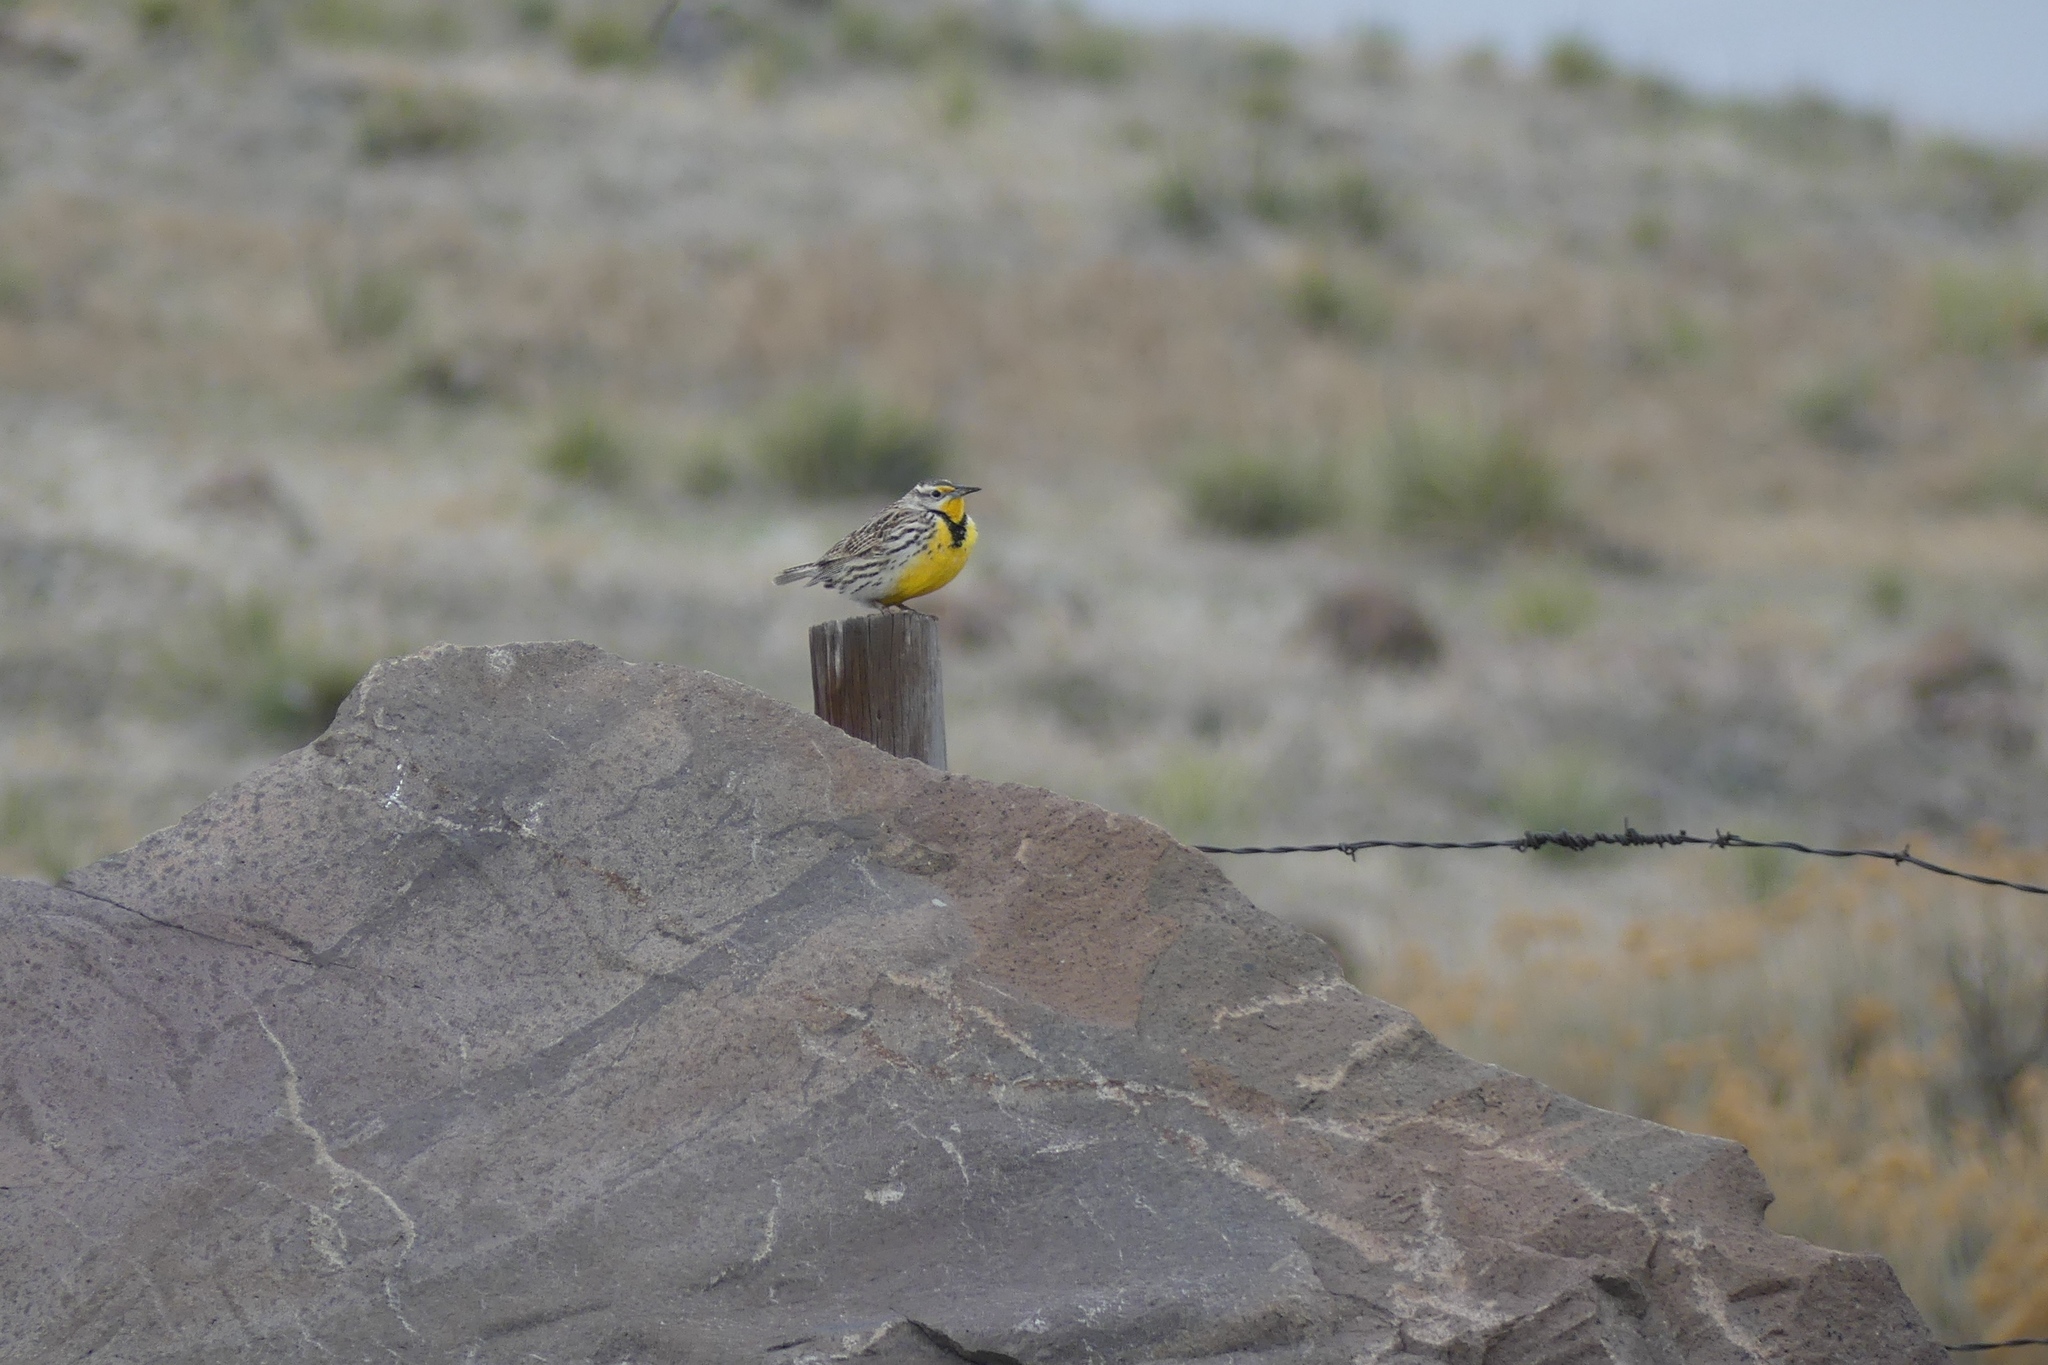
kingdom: Animalia
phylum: Chordata
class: Aves
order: Passeriformes
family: Icteridae
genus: Sturnella
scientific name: Sturnella neglecta
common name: Western meadowlark
